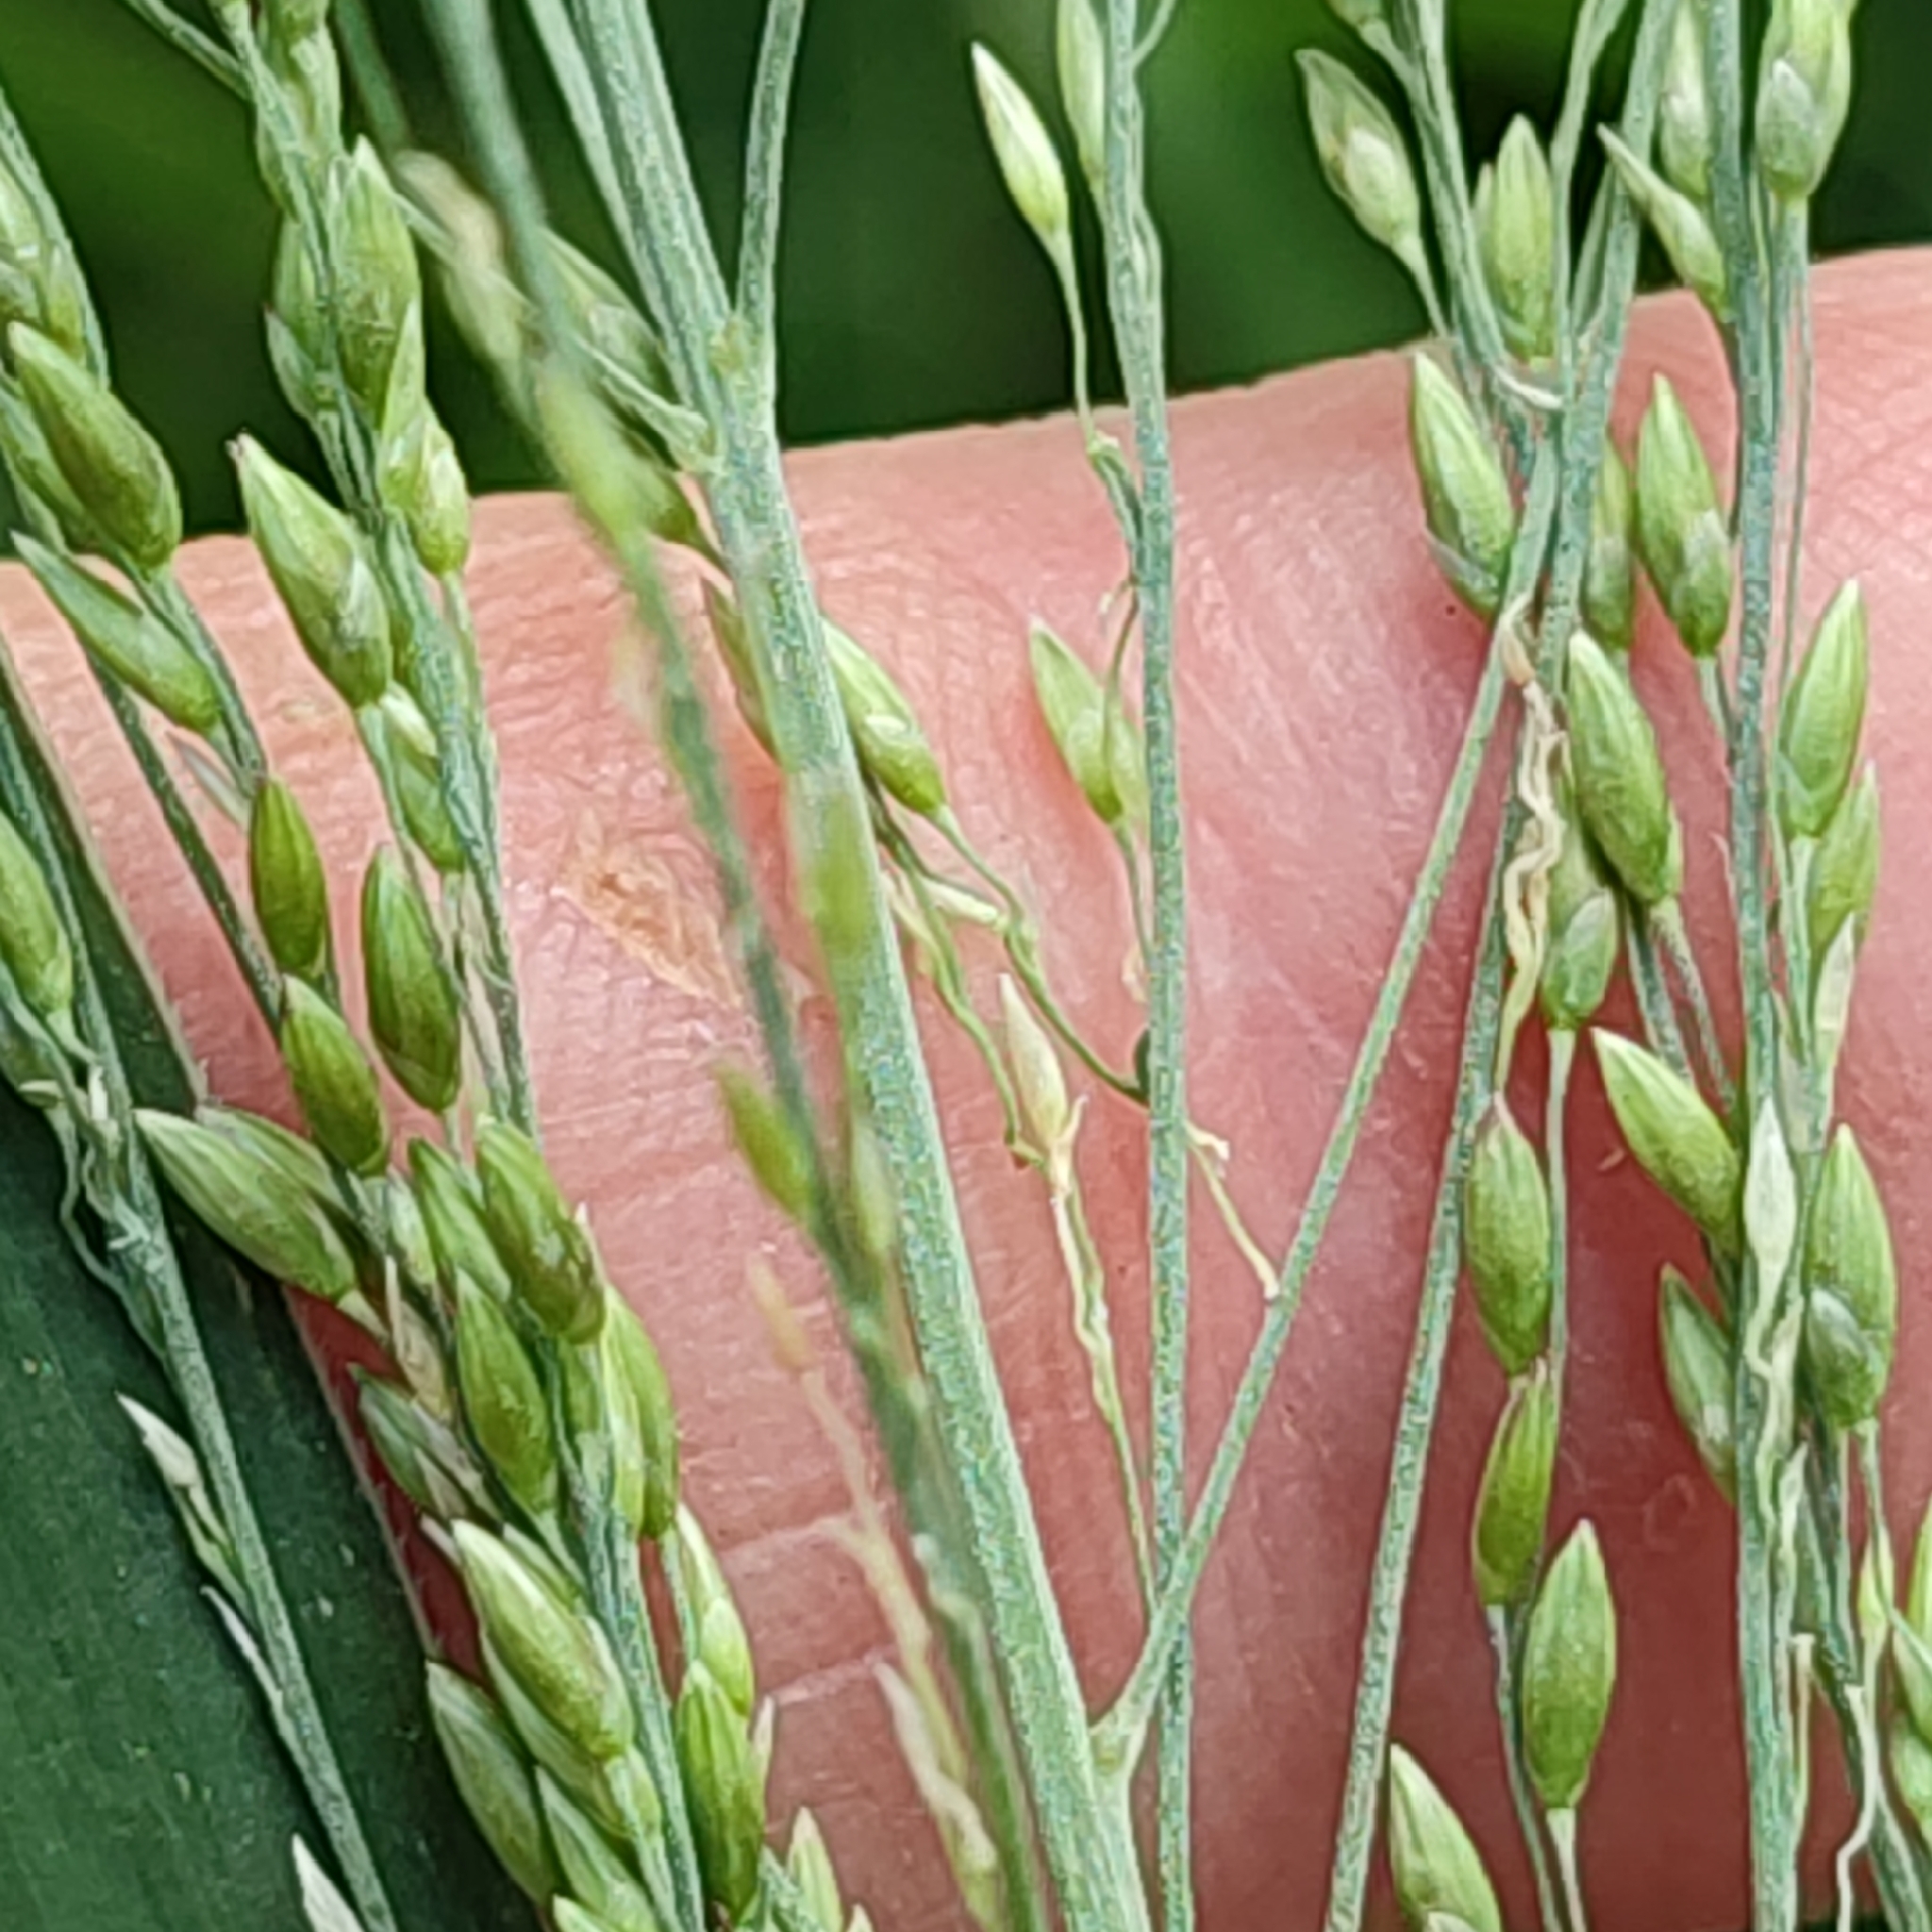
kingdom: Plantae
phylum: Tracheophyta
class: Liliopsida
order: Poales
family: Poaceae
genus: Megathyrsus
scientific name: Megathyrsus maximus
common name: Guineagrass
